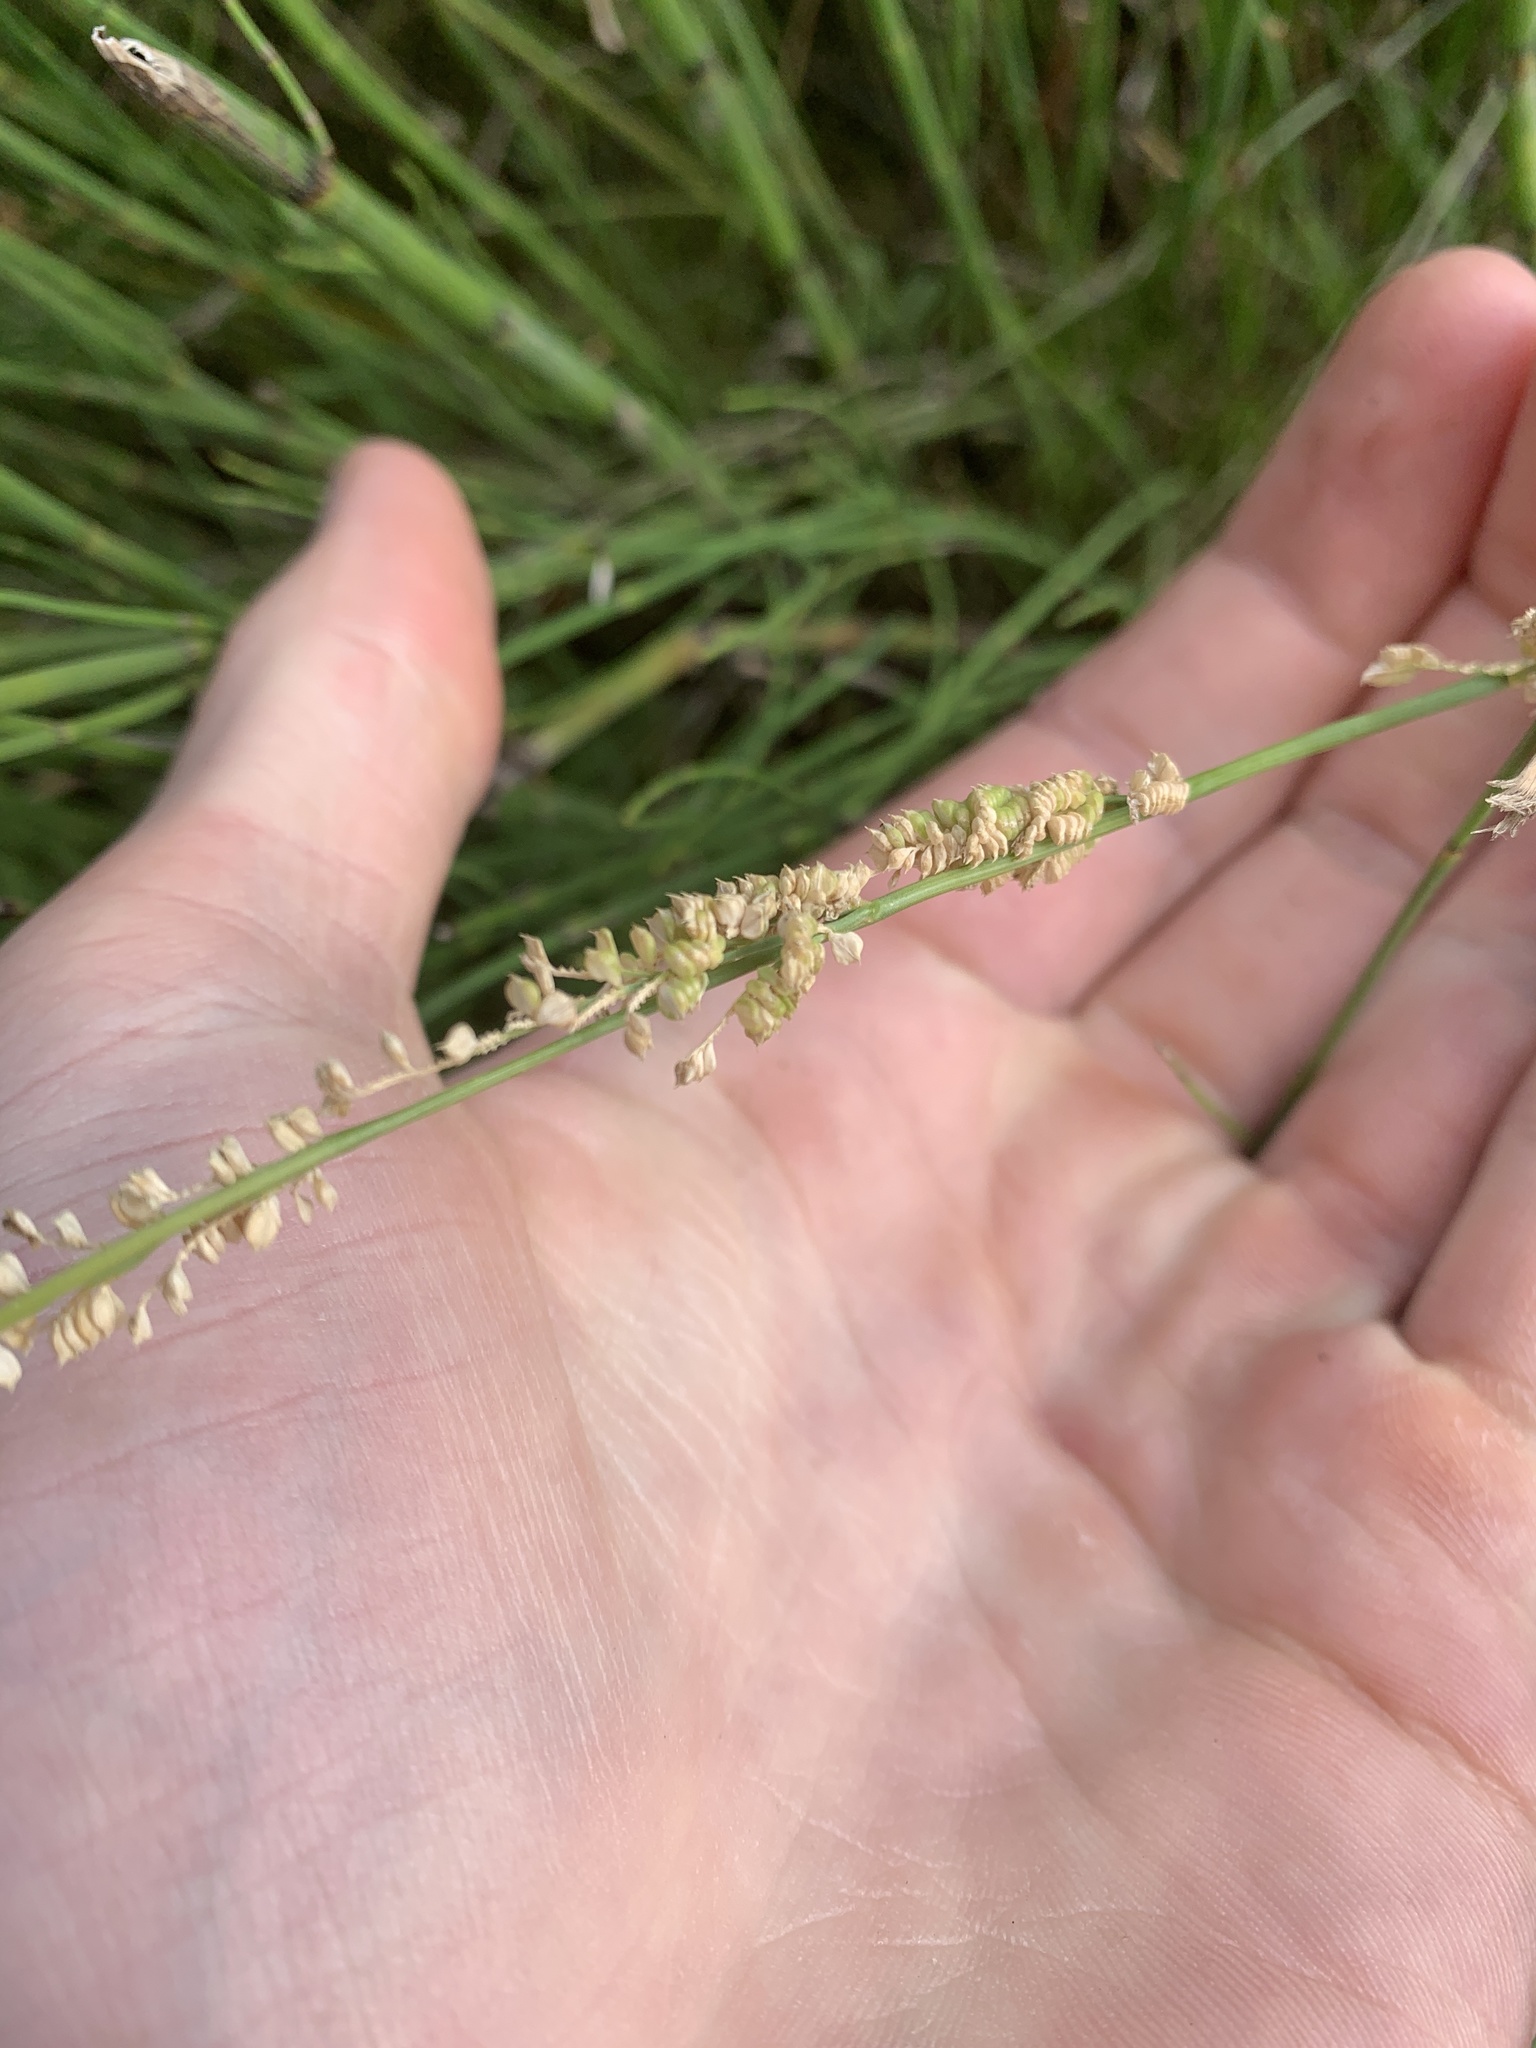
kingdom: Plantae
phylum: Tracheophyta
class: Liliopsida
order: Poales
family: Poaceae
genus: Beckmannia
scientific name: Beckmannia syzigachne
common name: American slough-grass
